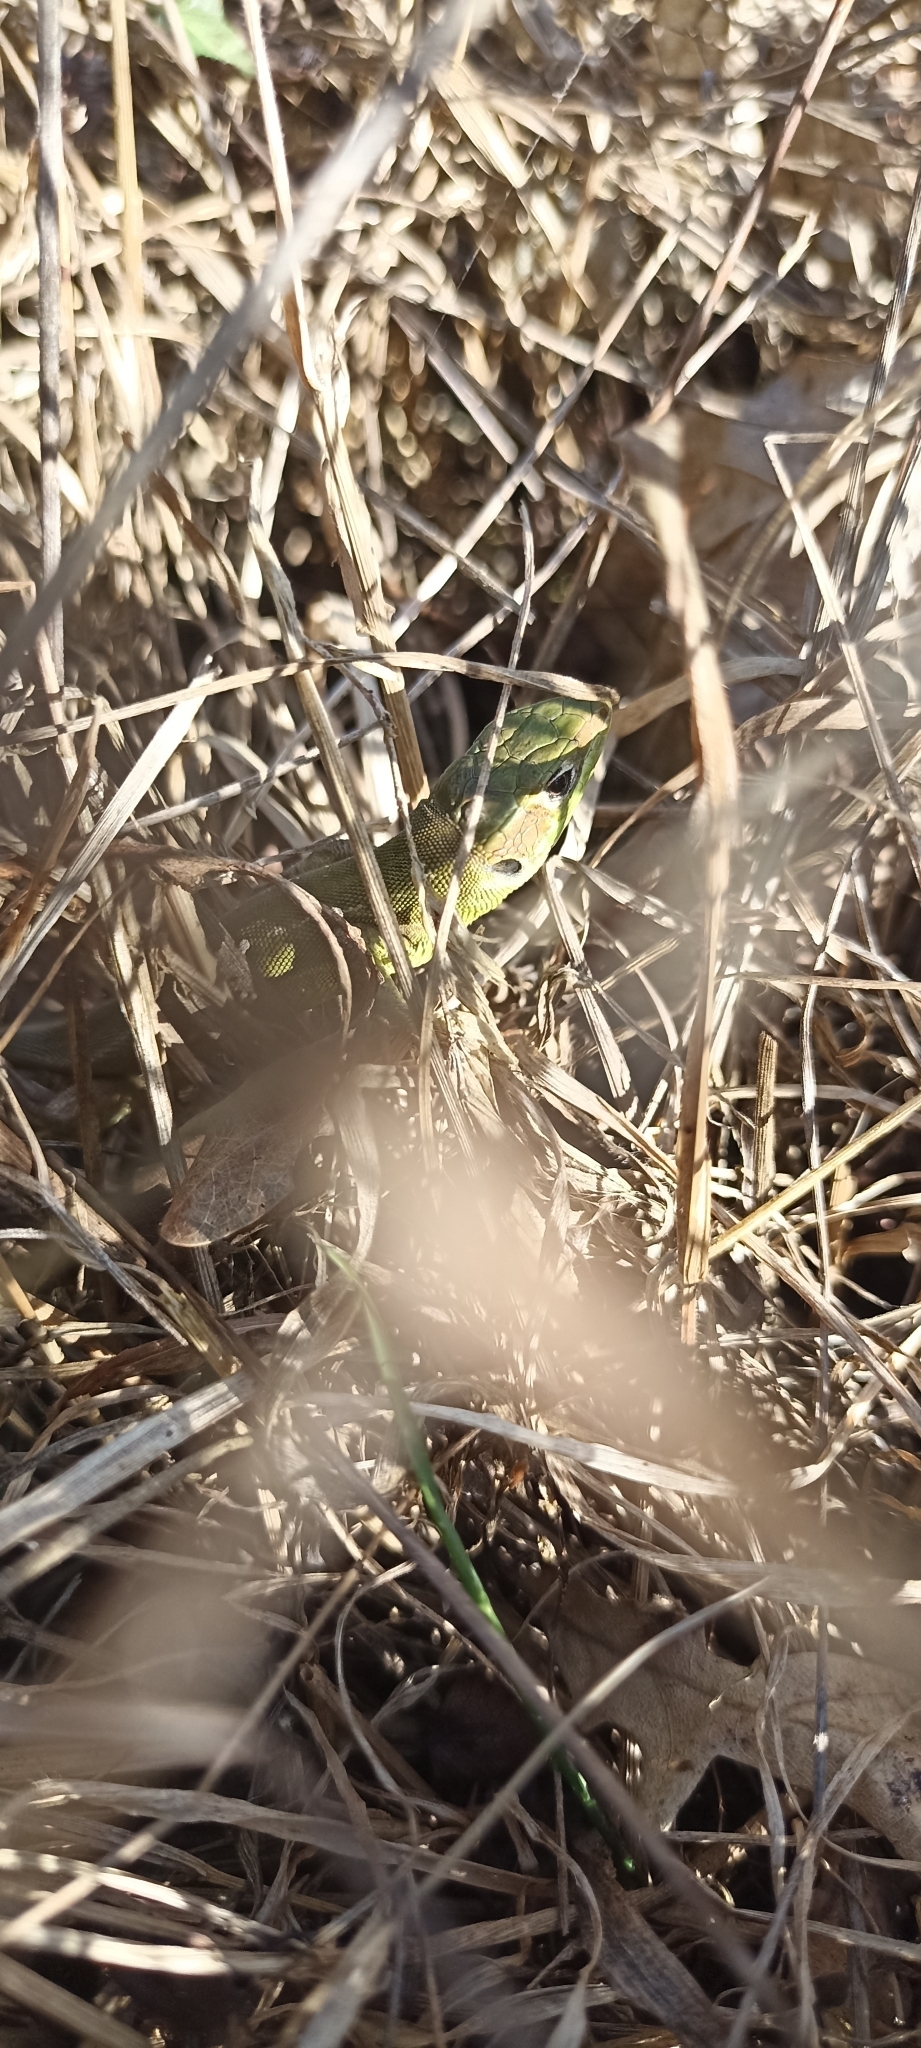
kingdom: Animalia
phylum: Chordata
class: Squamata
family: Lacertidae
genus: Lacerta
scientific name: Lacerta bilineata
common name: Western green lizard
